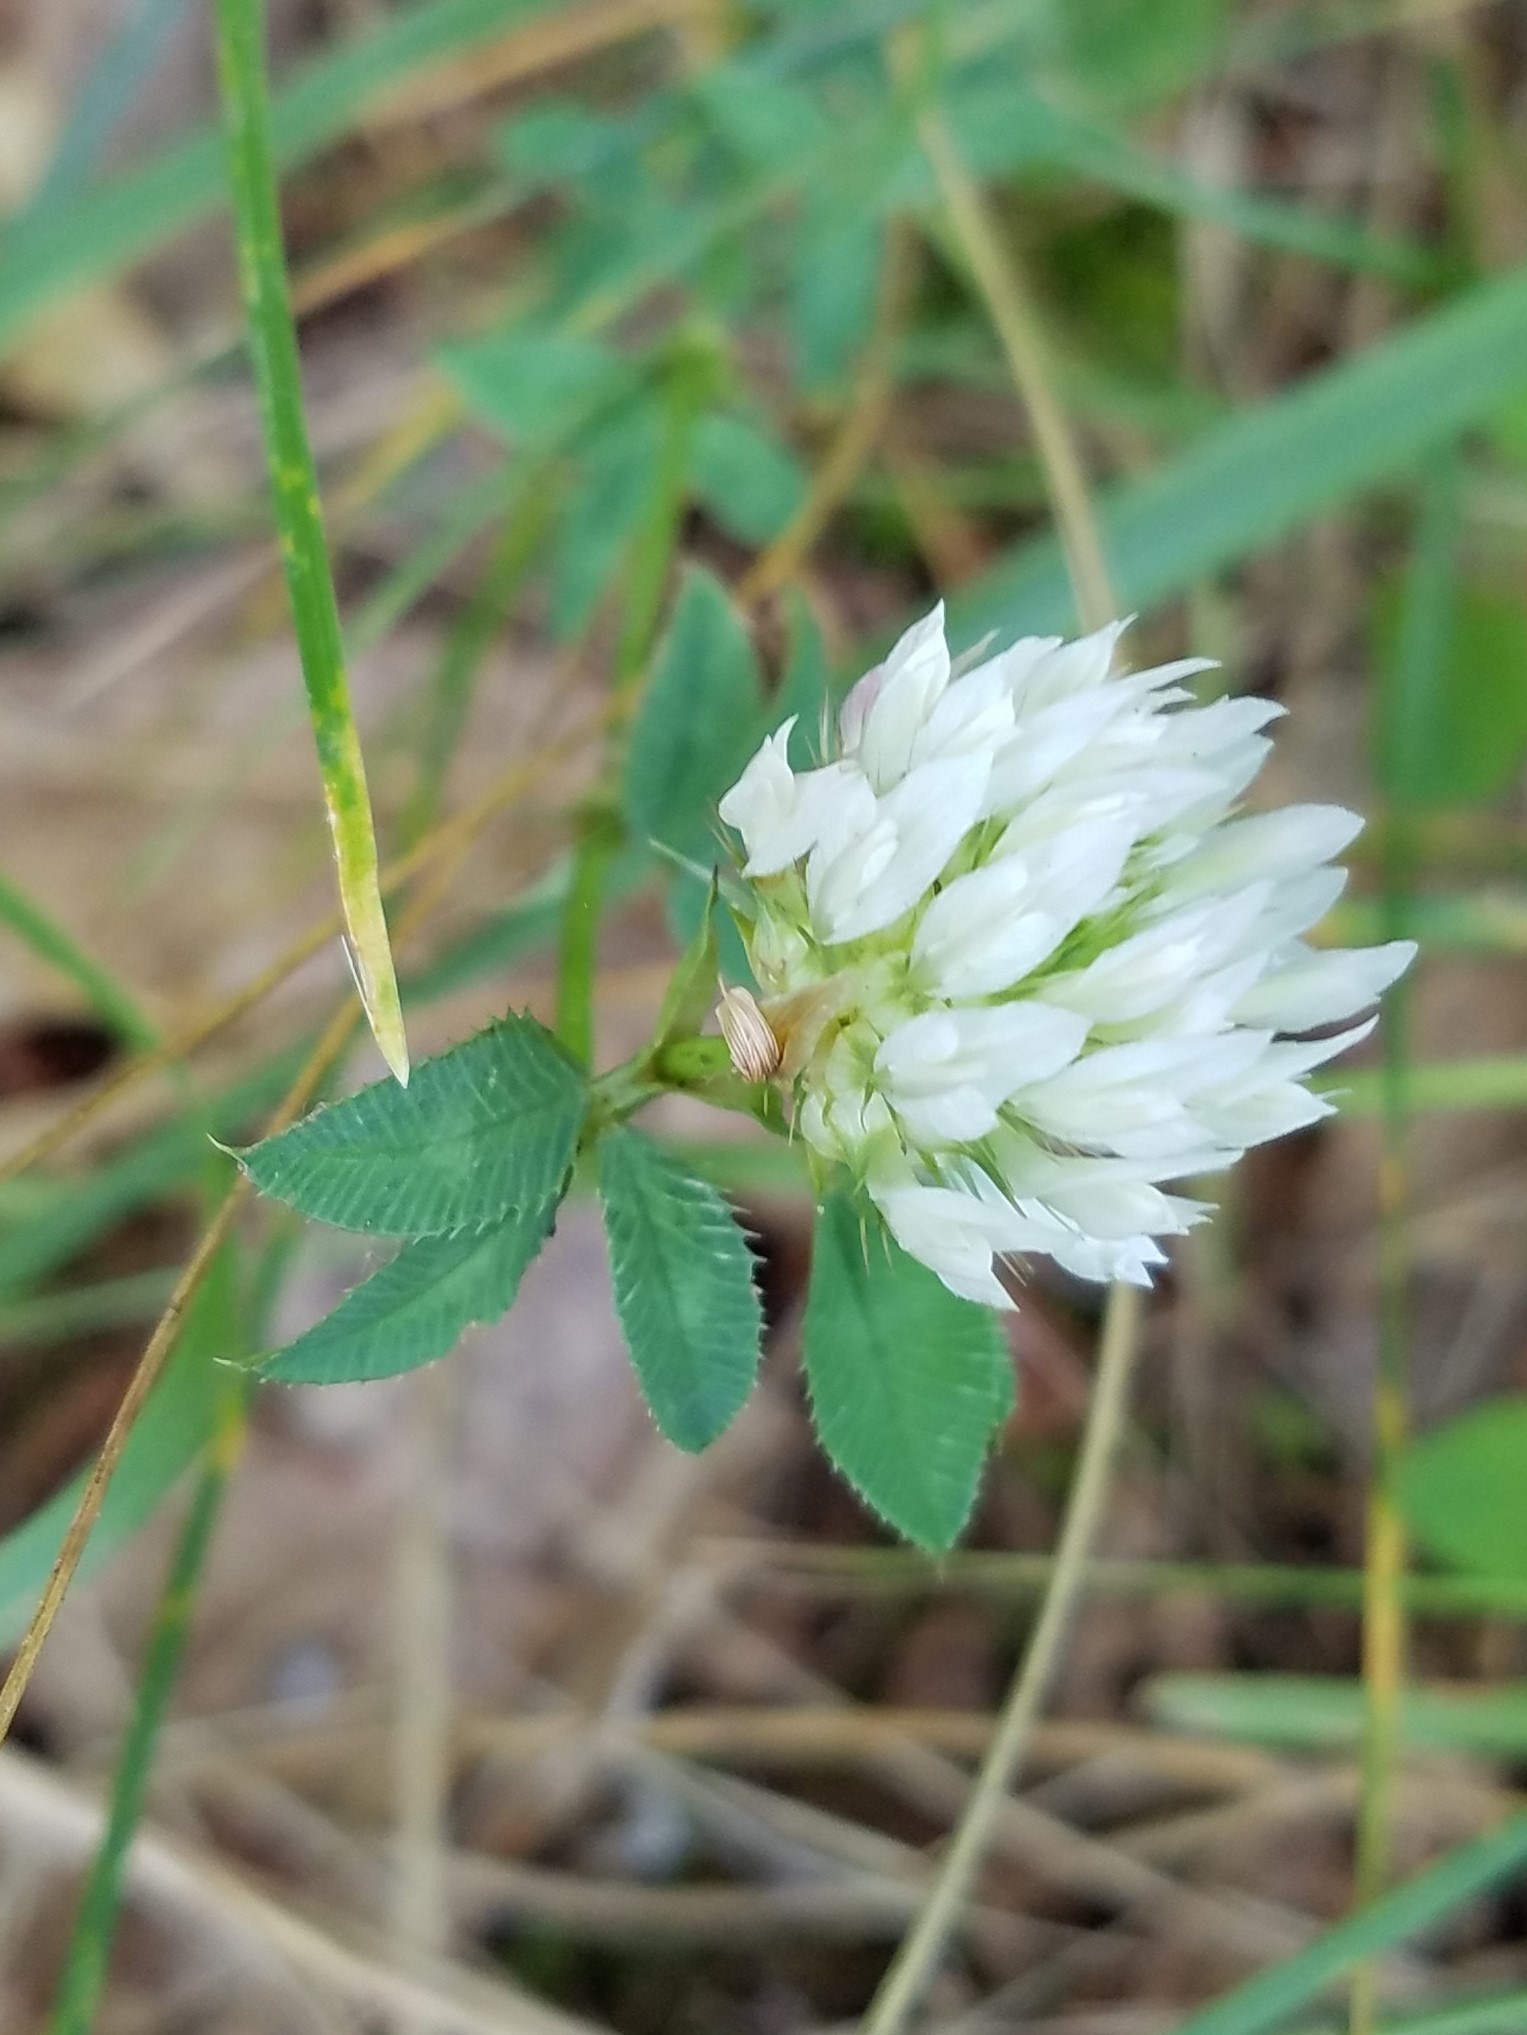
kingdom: Plantae
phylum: Tracheophyta
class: Magnoliopsida
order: Fabales
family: Fabaceae
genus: Trifolium
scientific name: Trifolium vesiculosum
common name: Arrowleaf clover
